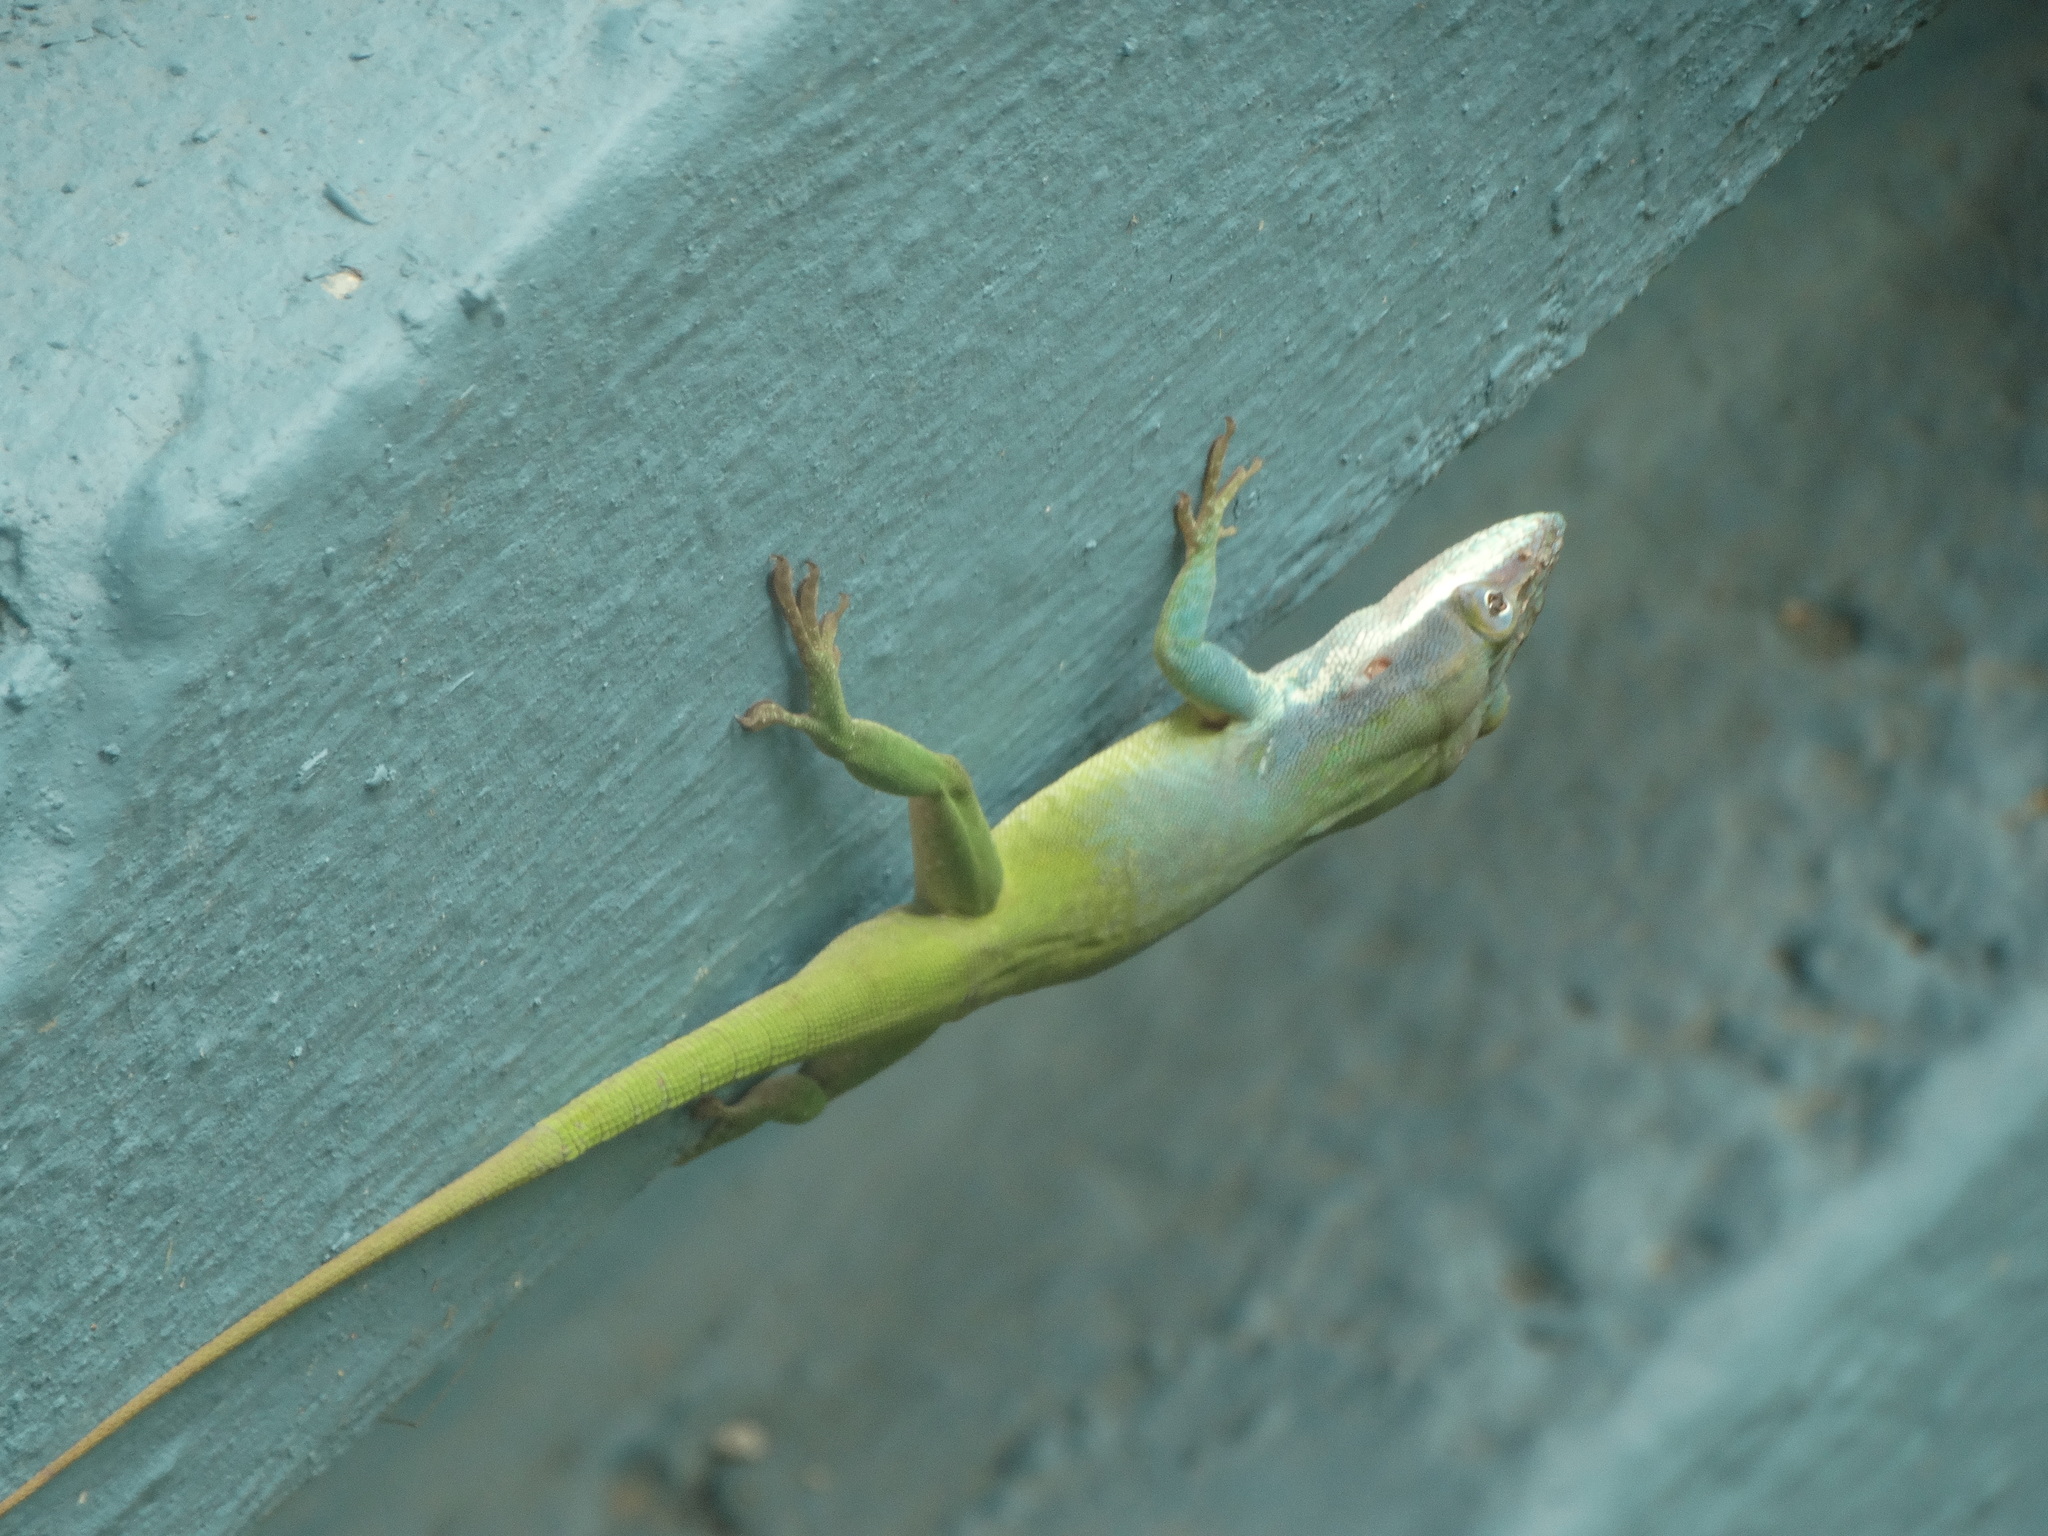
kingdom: Animalia
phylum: Chordata
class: Squamata
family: Dactyloidae
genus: Anolis
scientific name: Anolis allisoni
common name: Allison's anole
